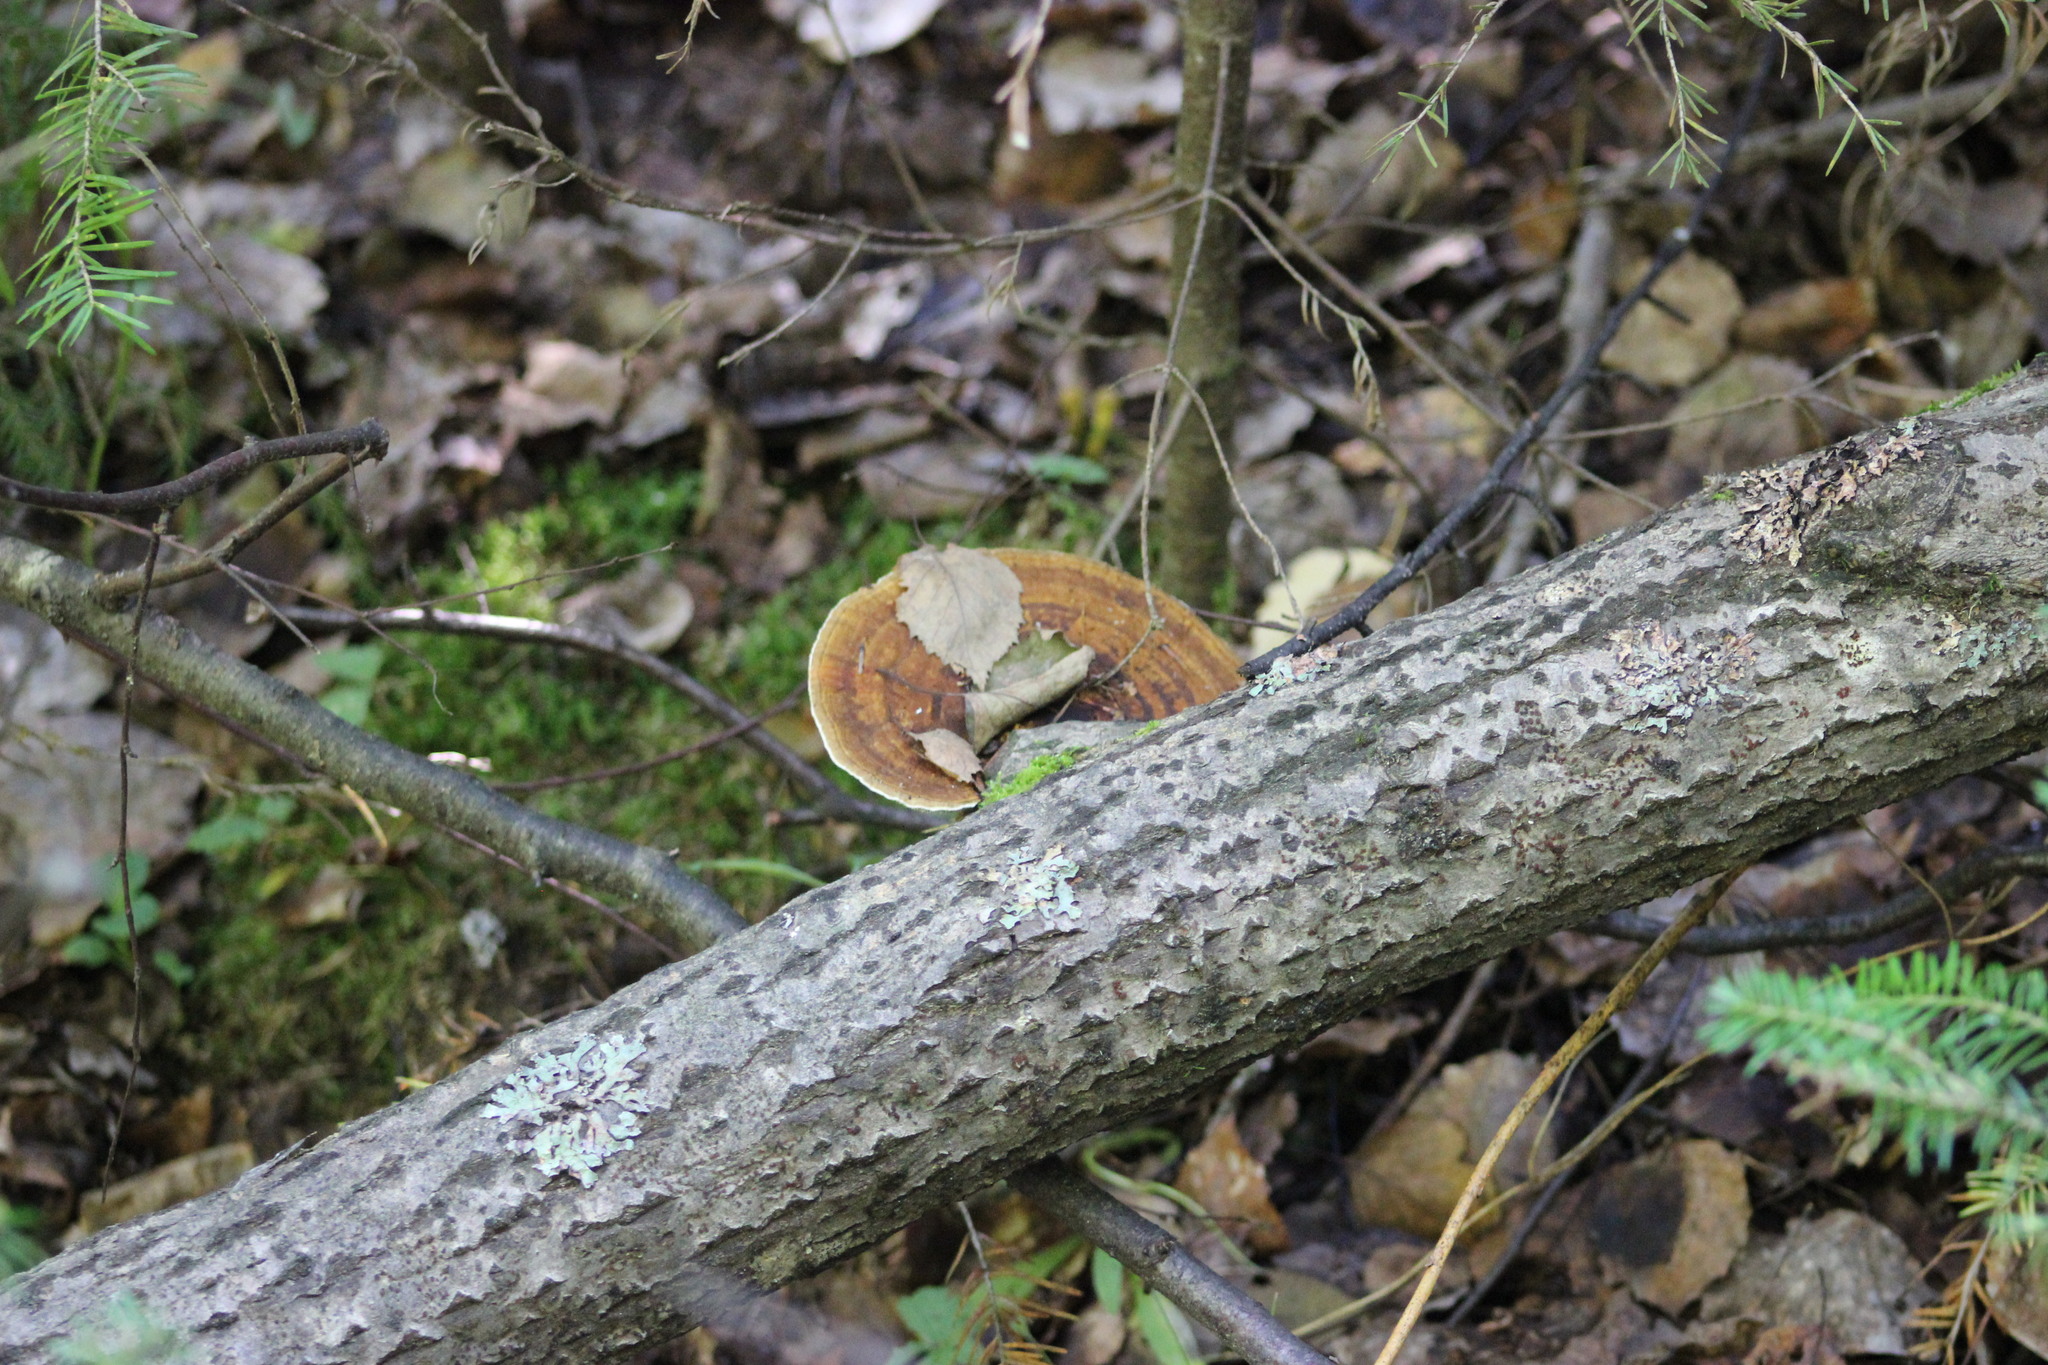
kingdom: Fungi
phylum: Basidiomycota
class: Agaricomycetes
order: Polyporales
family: Polyporaceae
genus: Daedaleopsis
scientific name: Daedaleopsis confragosa
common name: Blushing bracket
